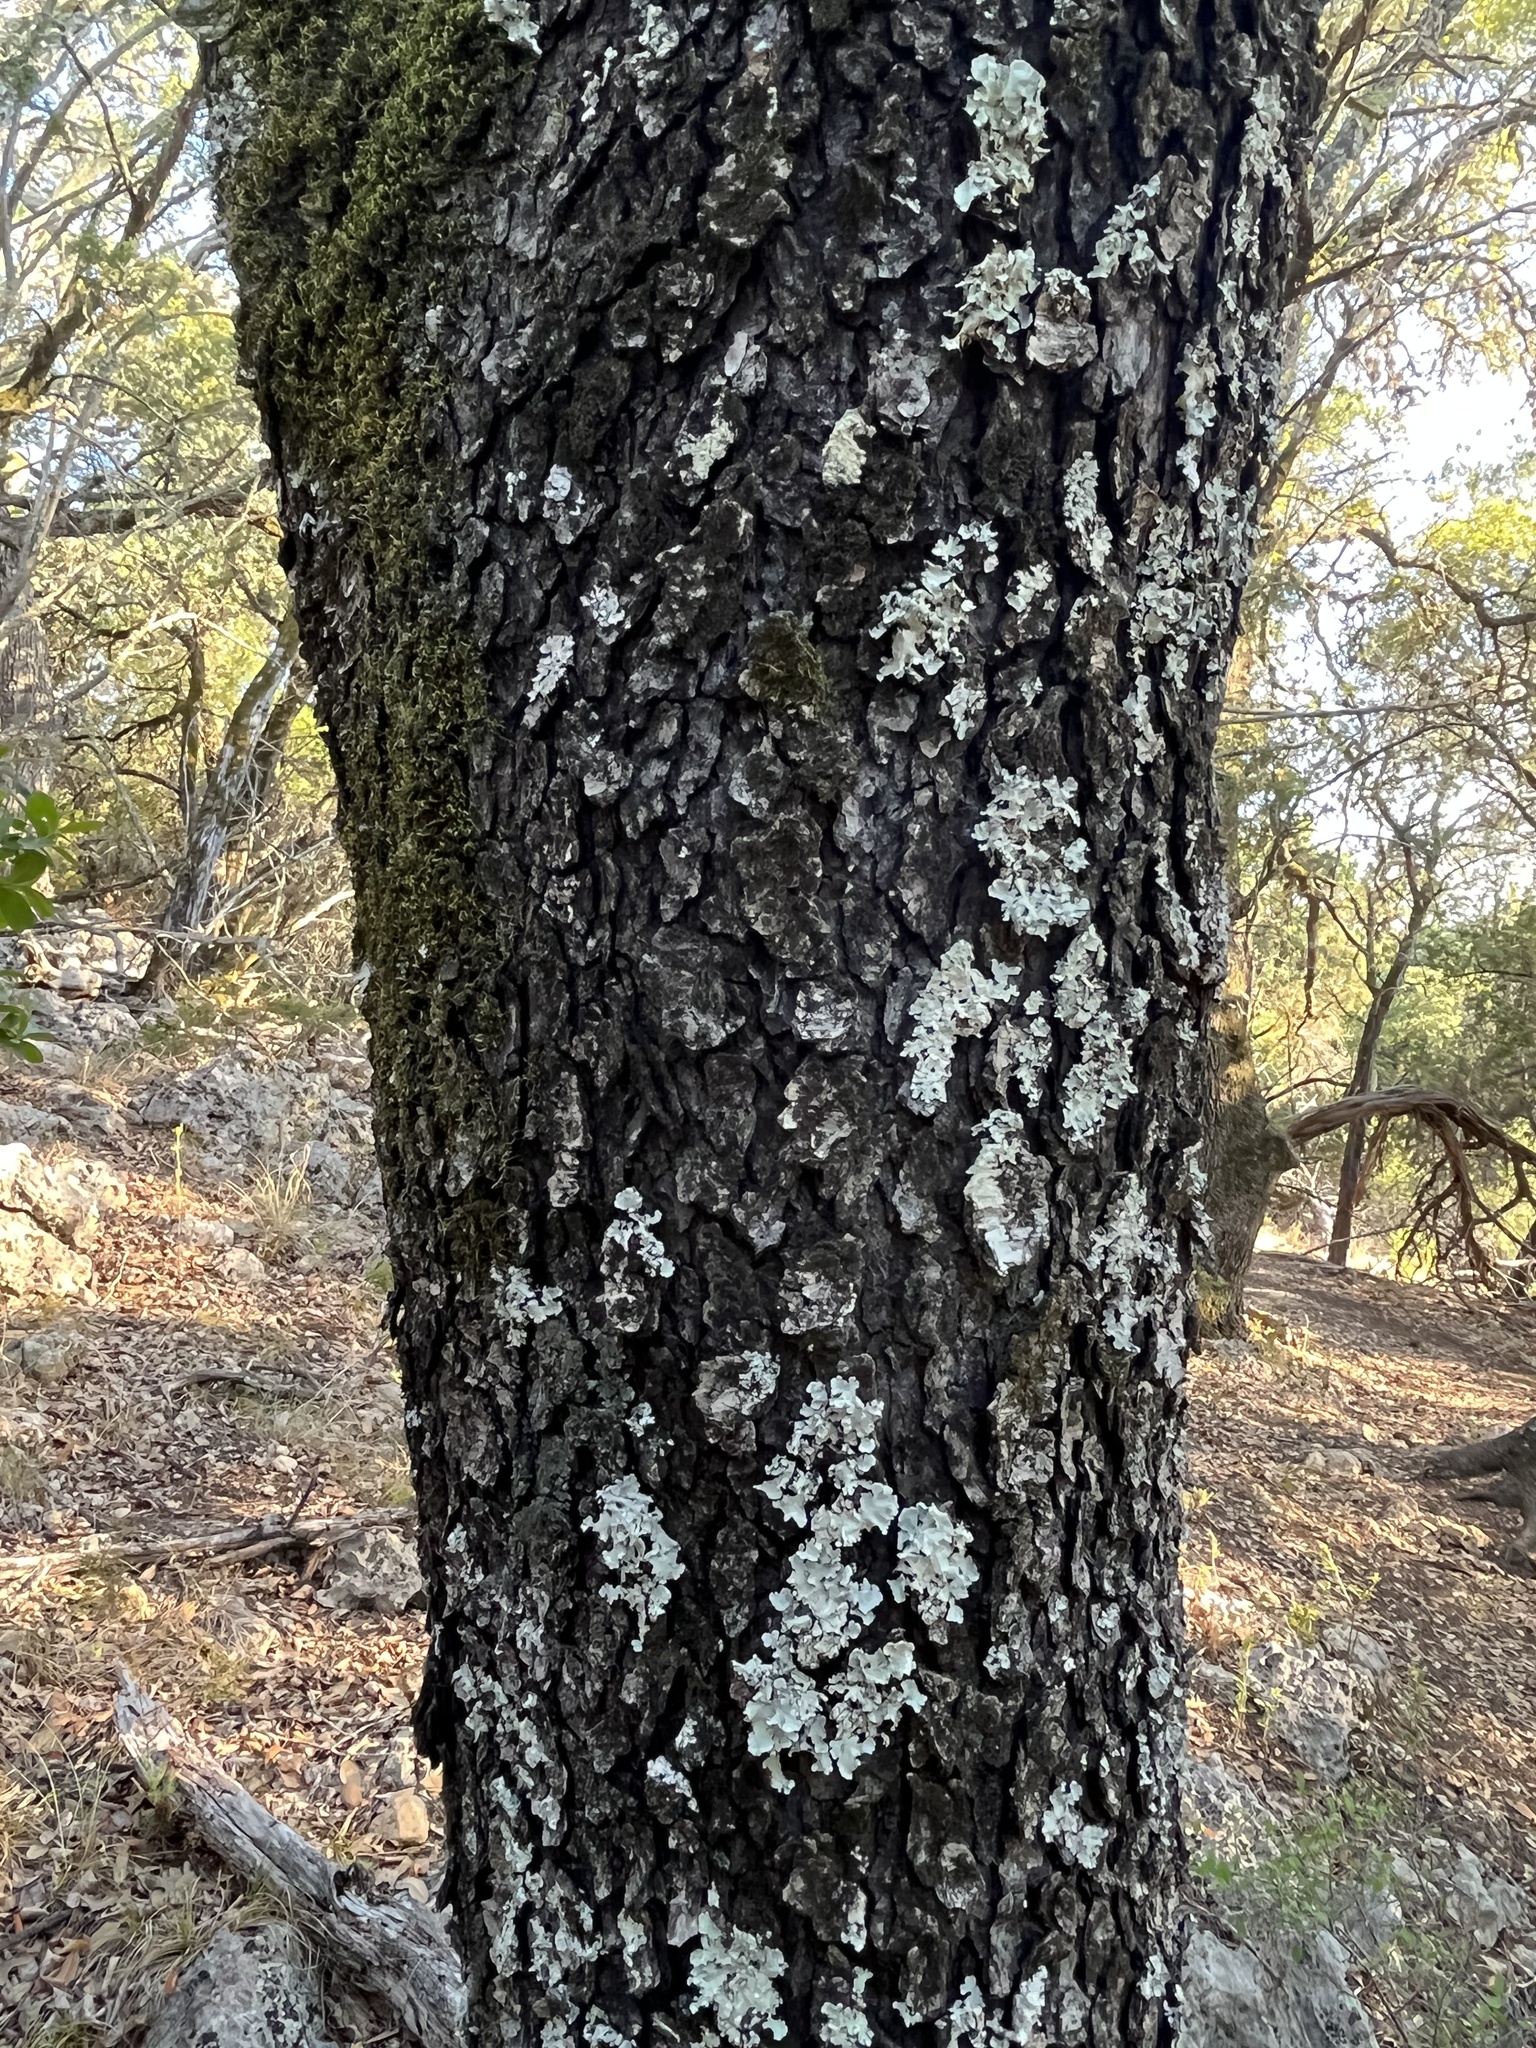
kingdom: Plantae
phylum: Tracheophyta
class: Magnoliopsida
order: Rosales
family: Rosaceae
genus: Prunus
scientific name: Prunus serotina
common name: Black cherry
